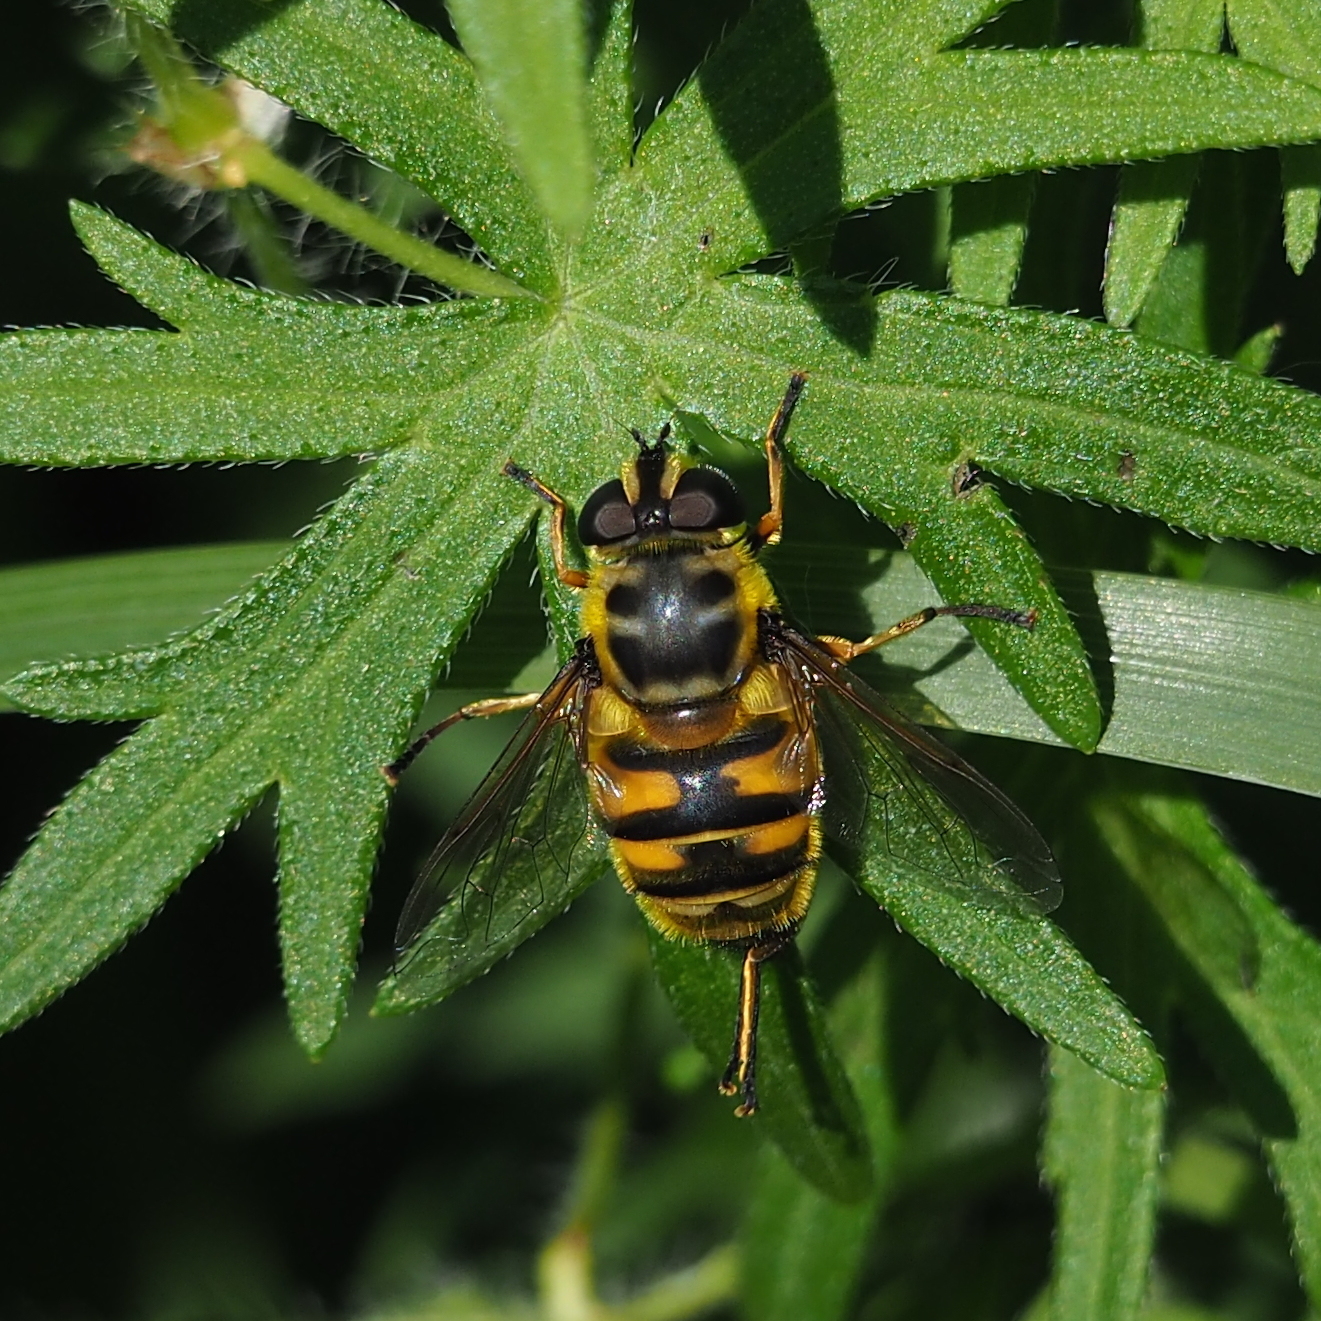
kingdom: Animalia
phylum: Arthropoda
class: Insecta
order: Diptera
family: Syrphidae
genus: Myathropa
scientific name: Myathropa florea
